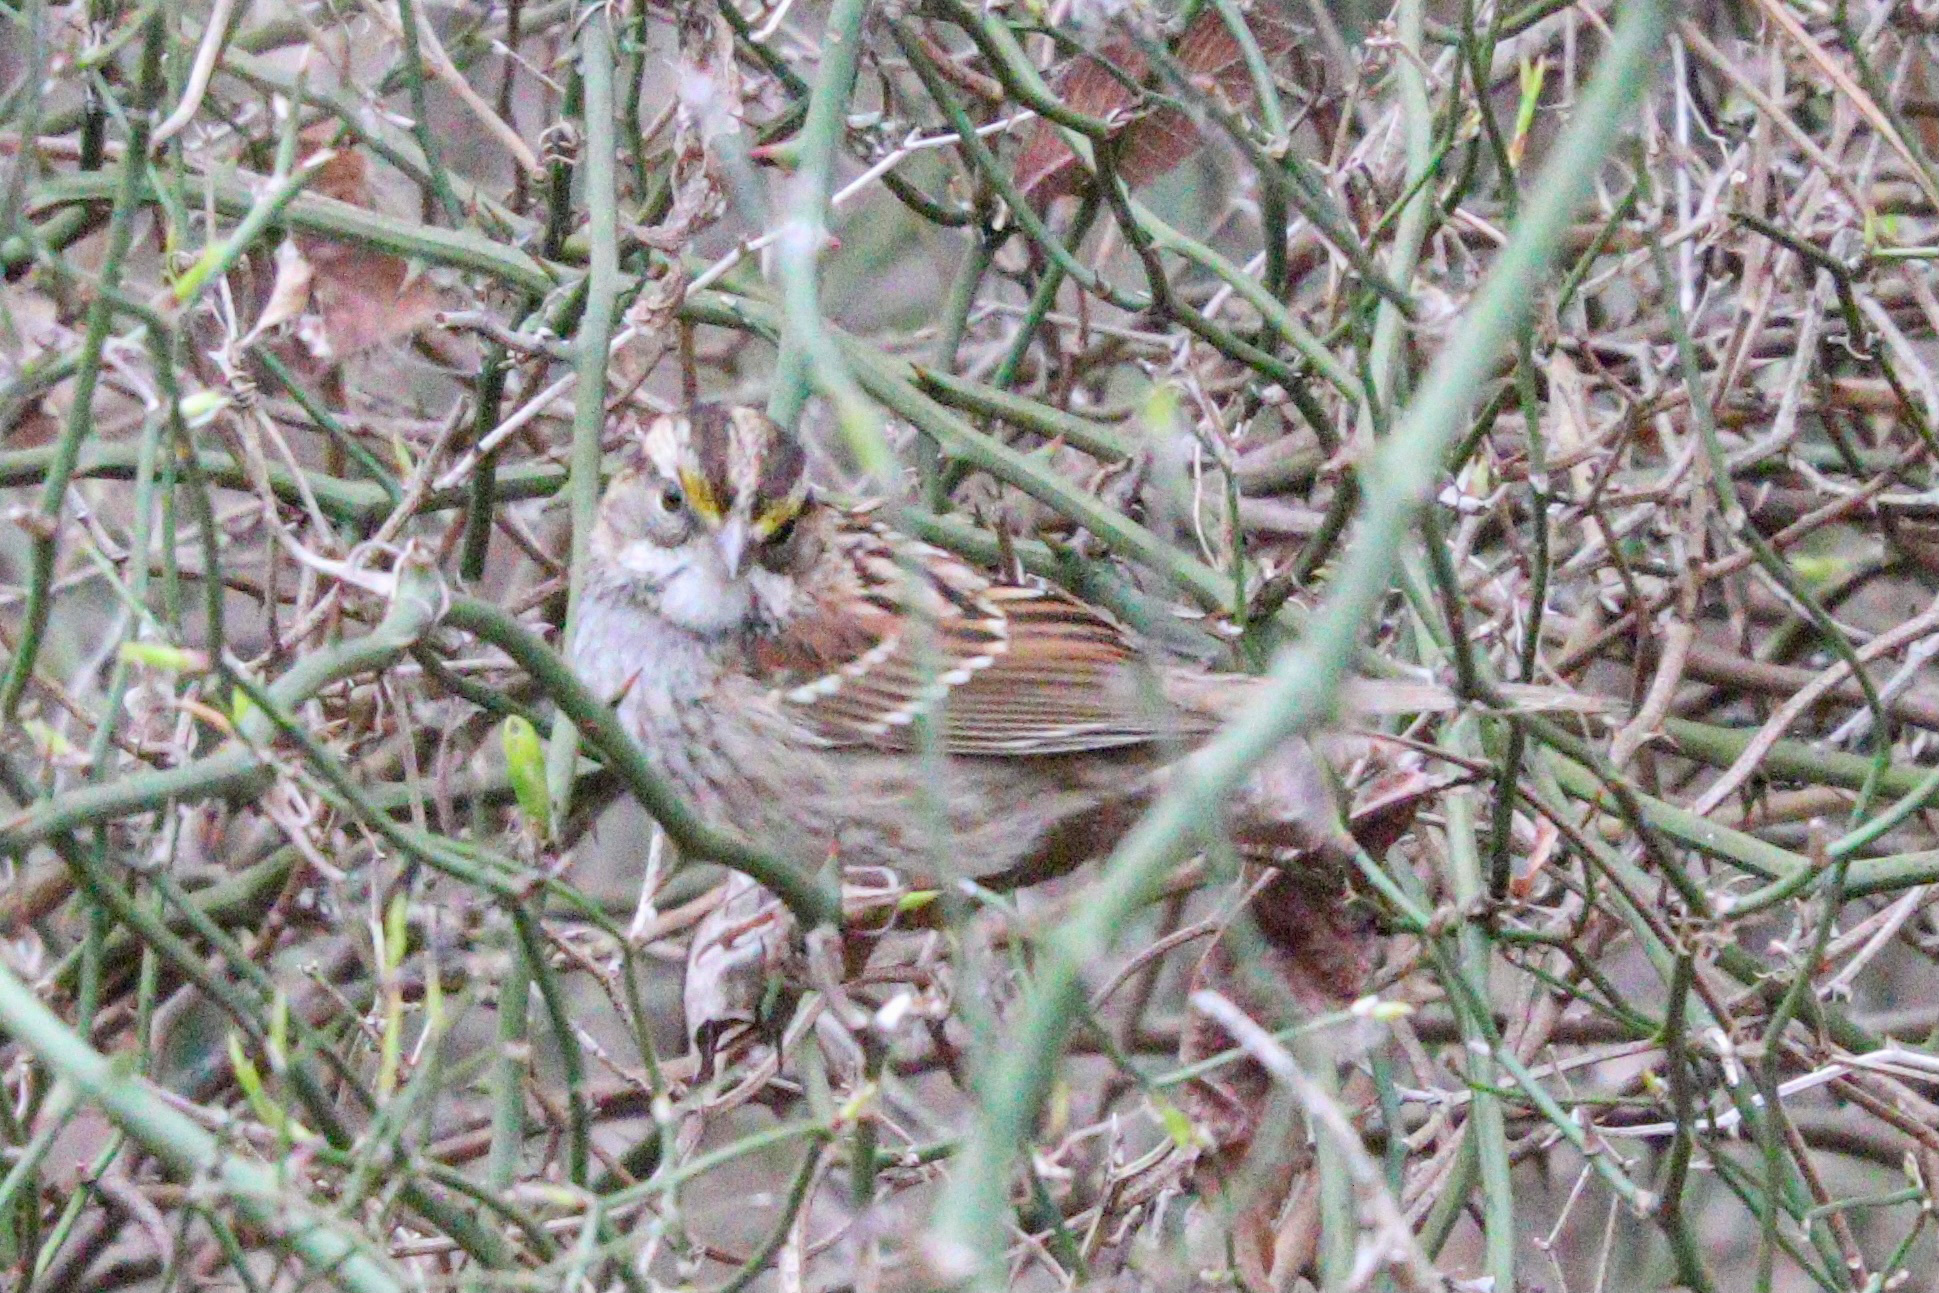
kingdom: Animalia
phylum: Chordata
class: Aves
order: Passeriformes
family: Passerellidae
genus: Zonotrichia
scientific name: Zonotrichia albicollis
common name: White-throated sparrow
